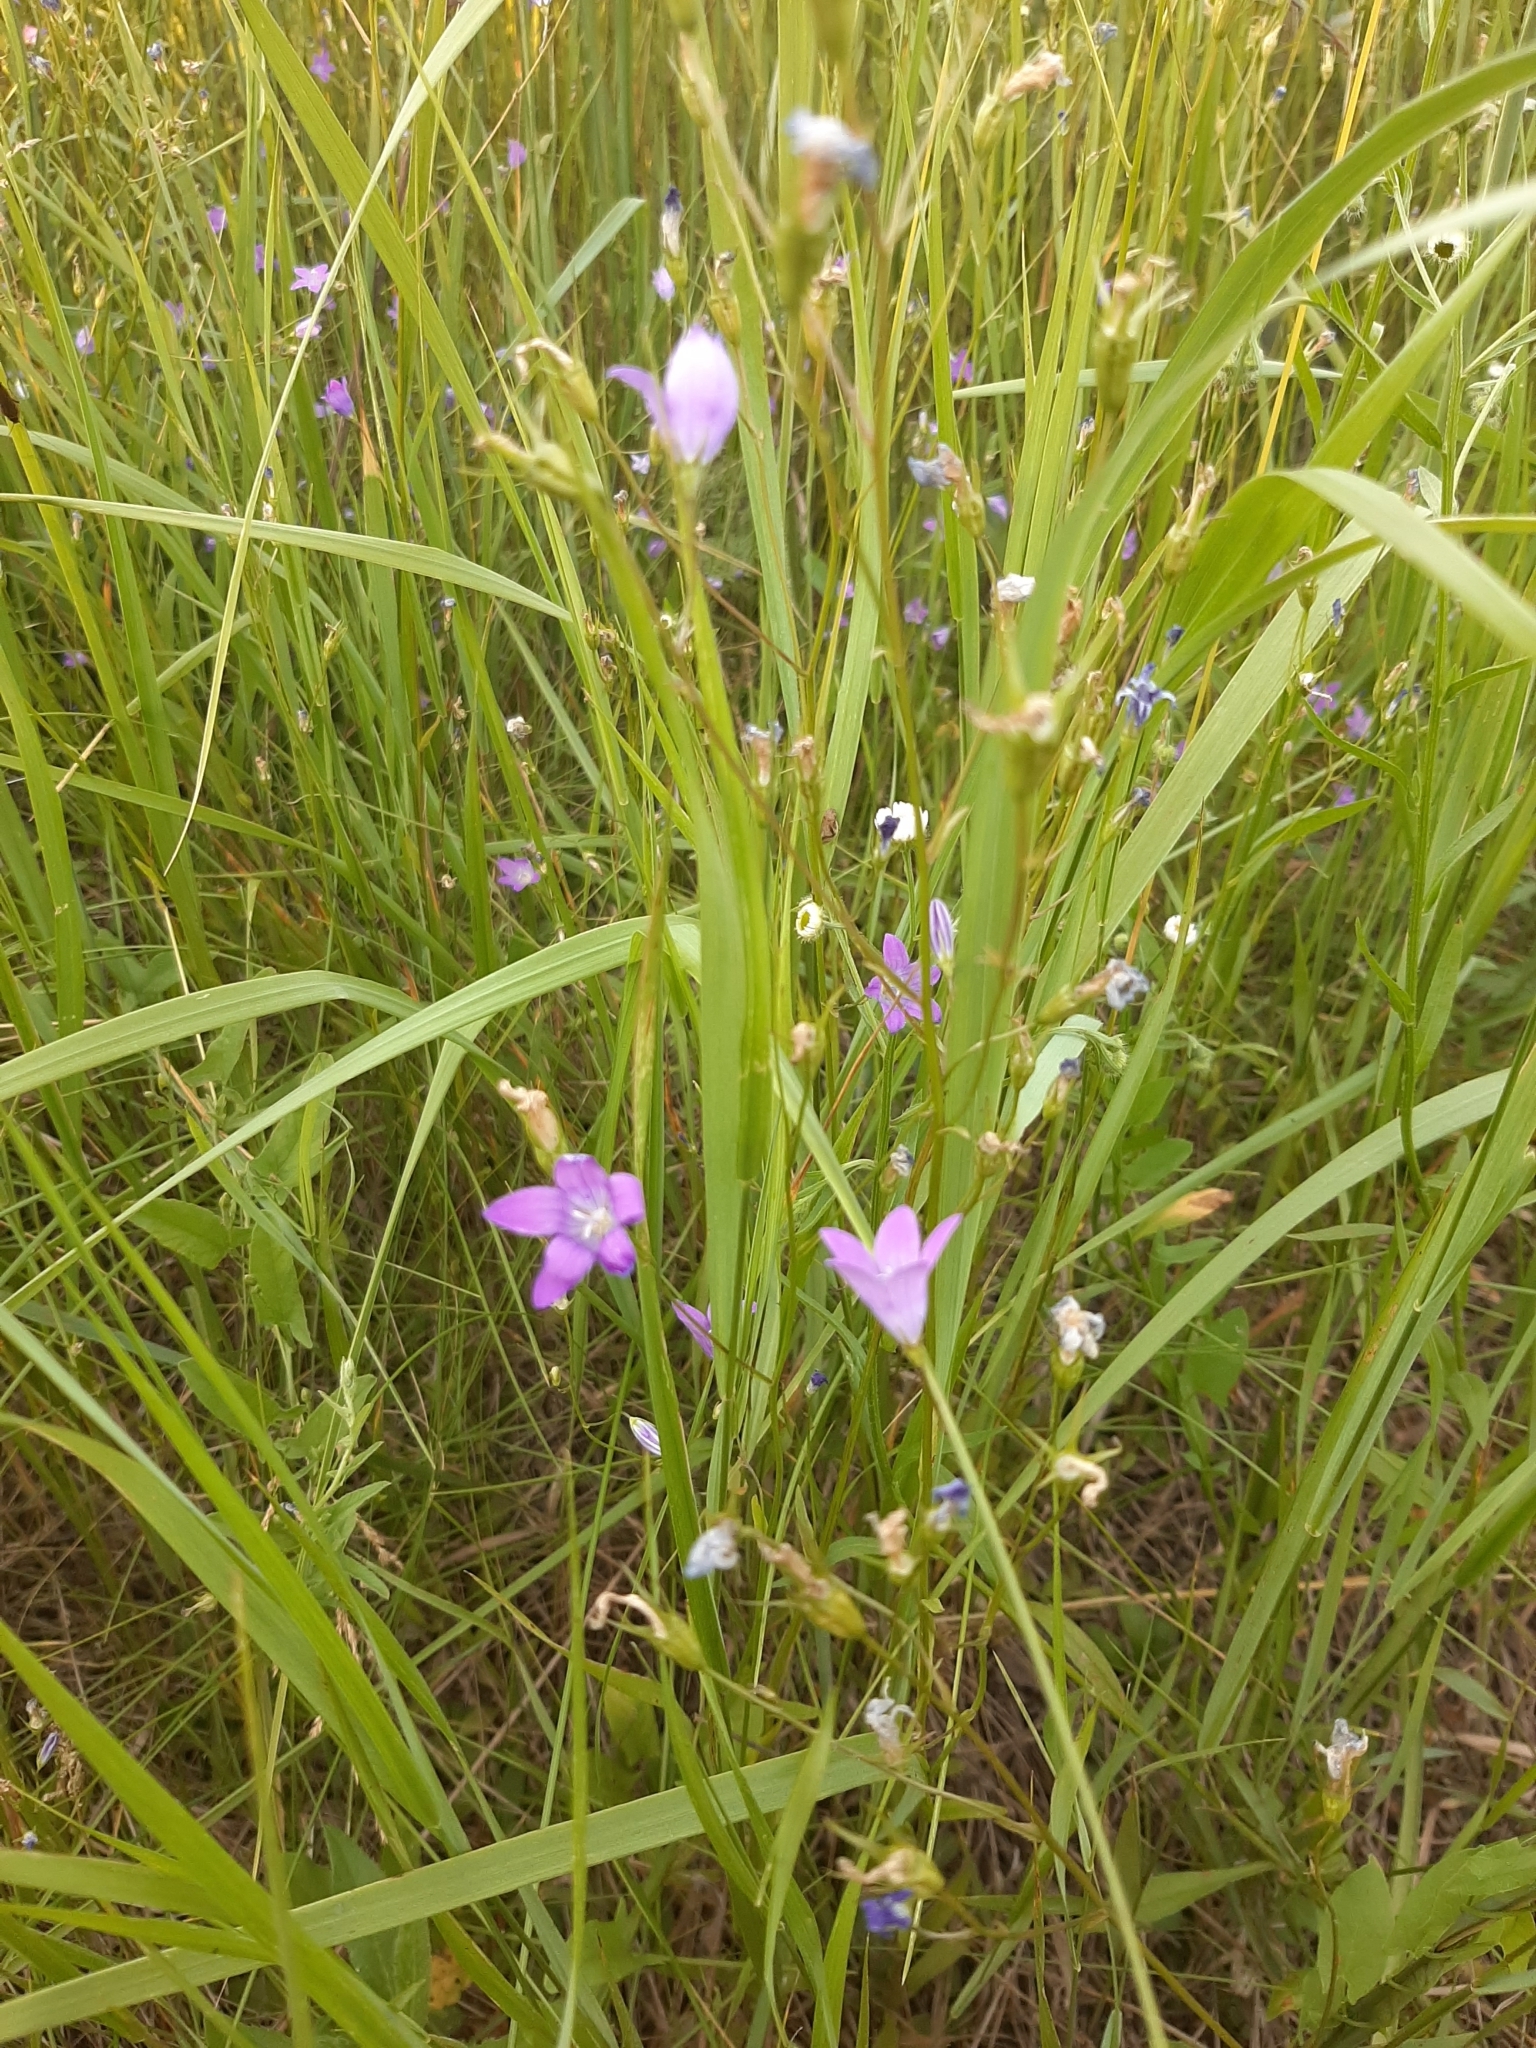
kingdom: Plantae
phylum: Tracheophyta
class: Magnoliopsida
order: Asterales
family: Campanulaceae
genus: Campanula
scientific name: Campanula patula
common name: Spreading bellflower
